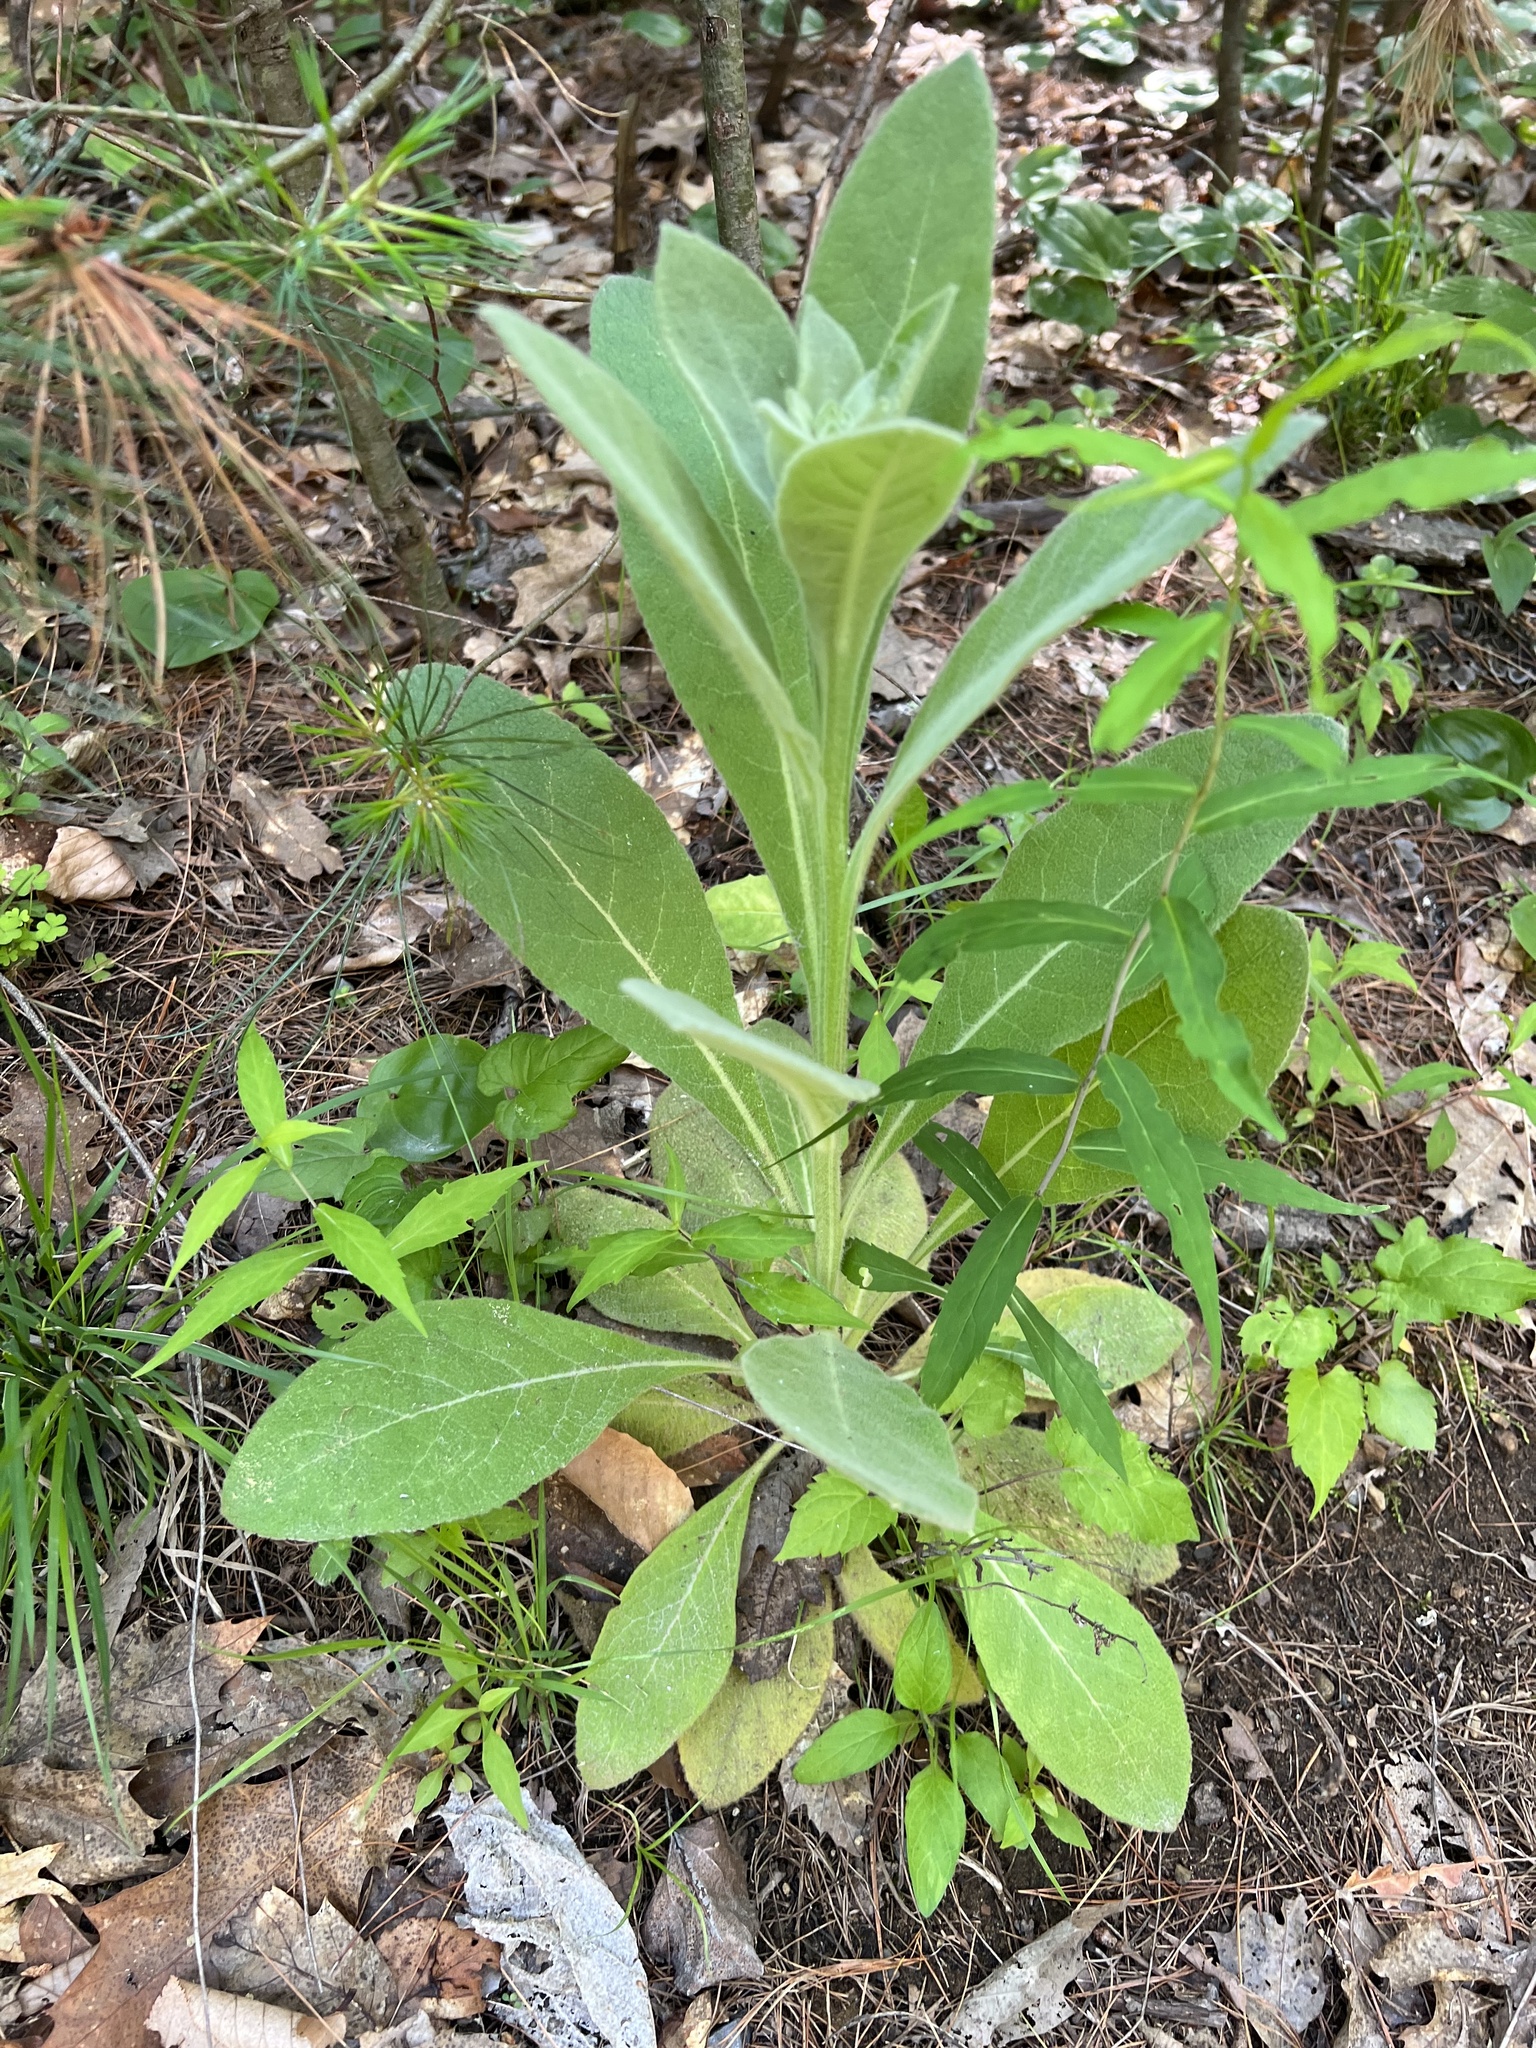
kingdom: Plantae
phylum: Tracheophyta
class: Magnoliopsida
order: Lamiales
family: Scrophulariaceae
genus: Verbascum
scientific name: Verbascum thapsus
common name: Common mullein
